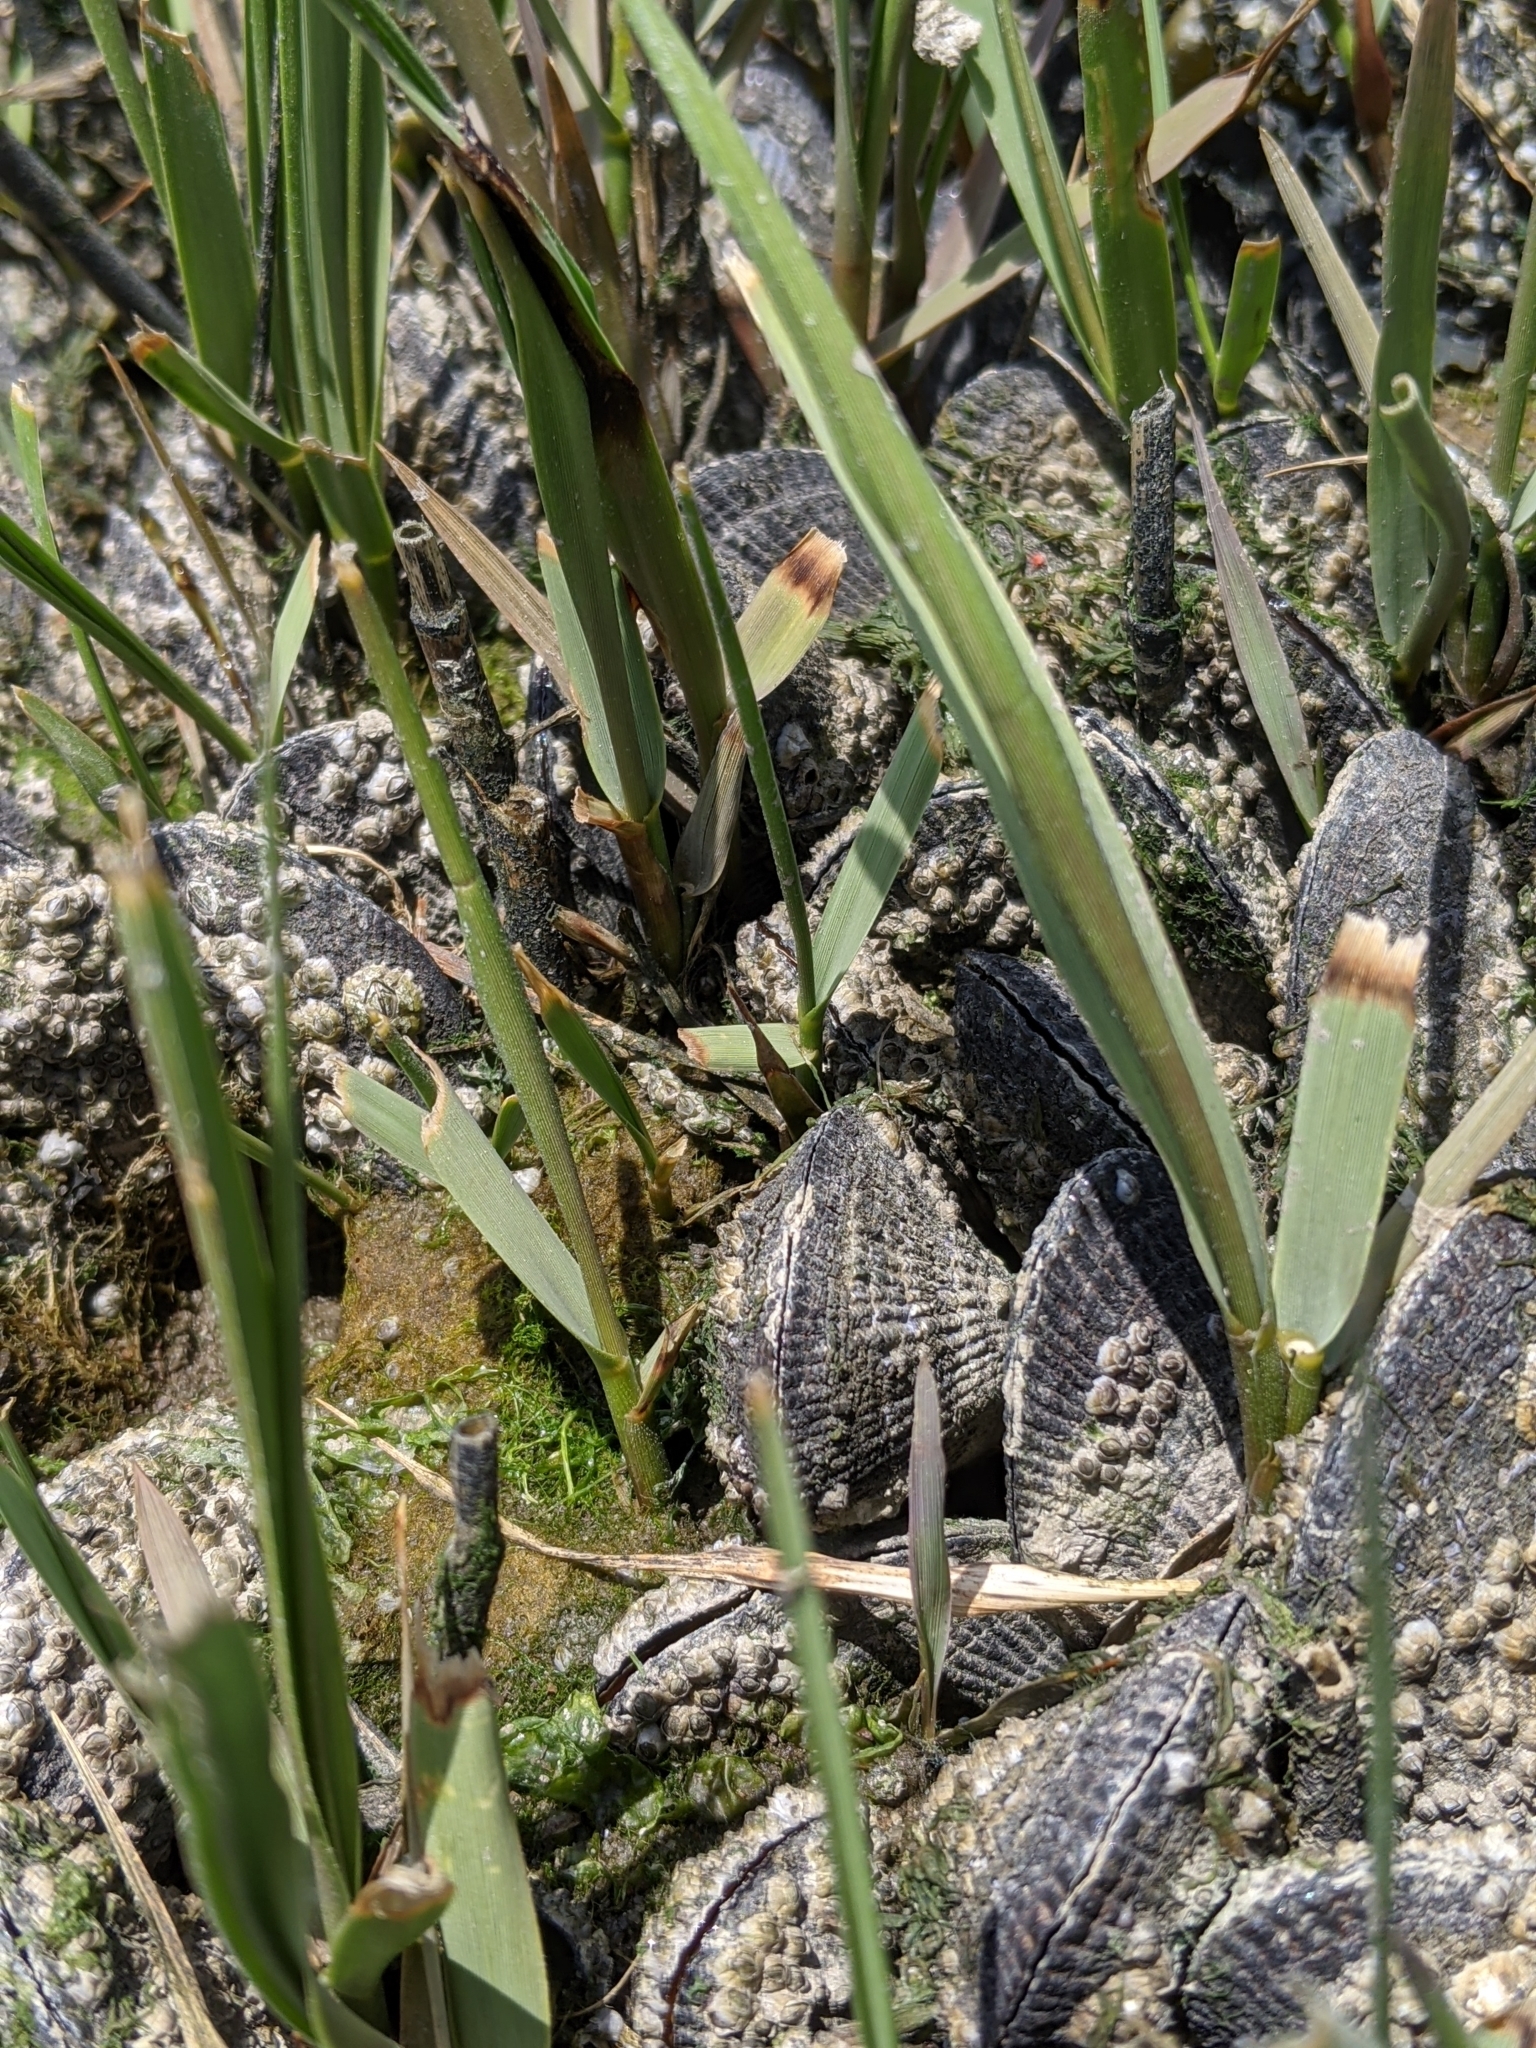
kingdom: Animalia
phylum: Mollusca
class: Bivalvia
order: Mytilida
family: Mytilidae
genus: Geukensia
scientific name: Geukensia demissa
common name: Ribbed mussel
